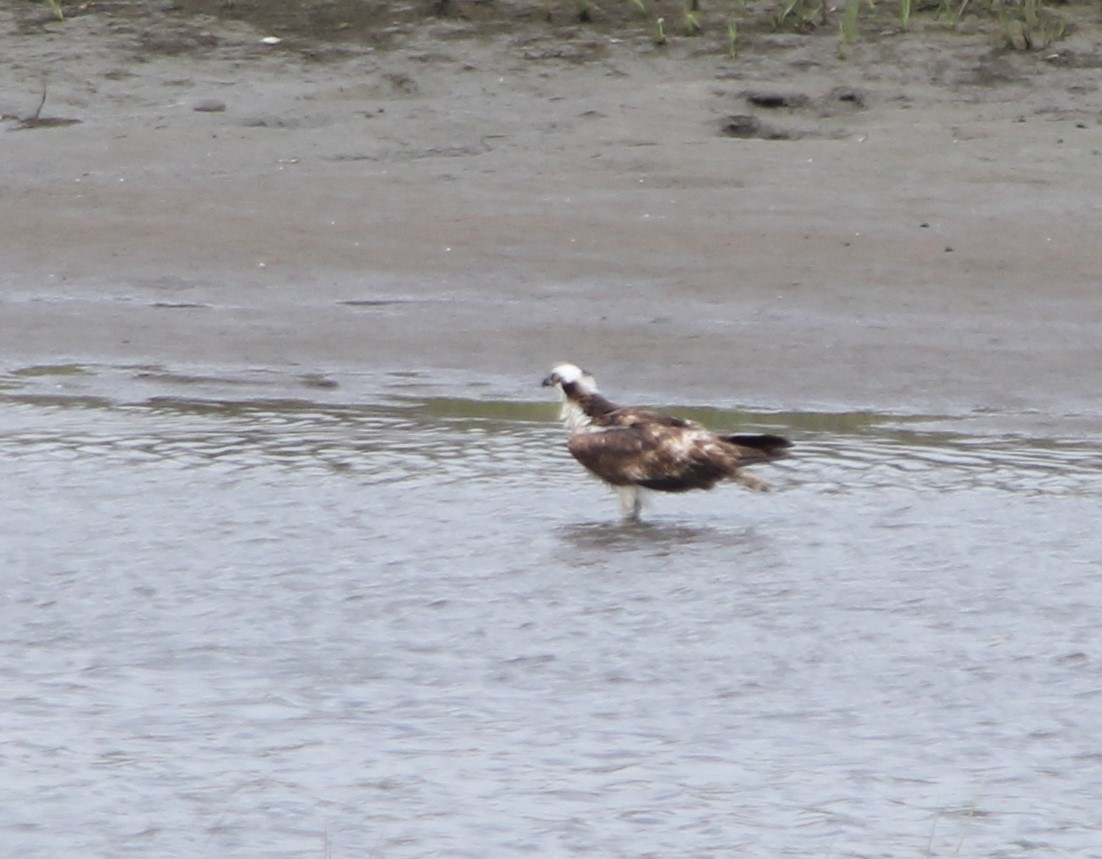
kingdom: Animalia
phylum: Chordata
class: Aves
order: Accipitriformes
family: Pandionidae
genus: Pandion
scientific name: Pandion haliaetus
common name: Osprey
